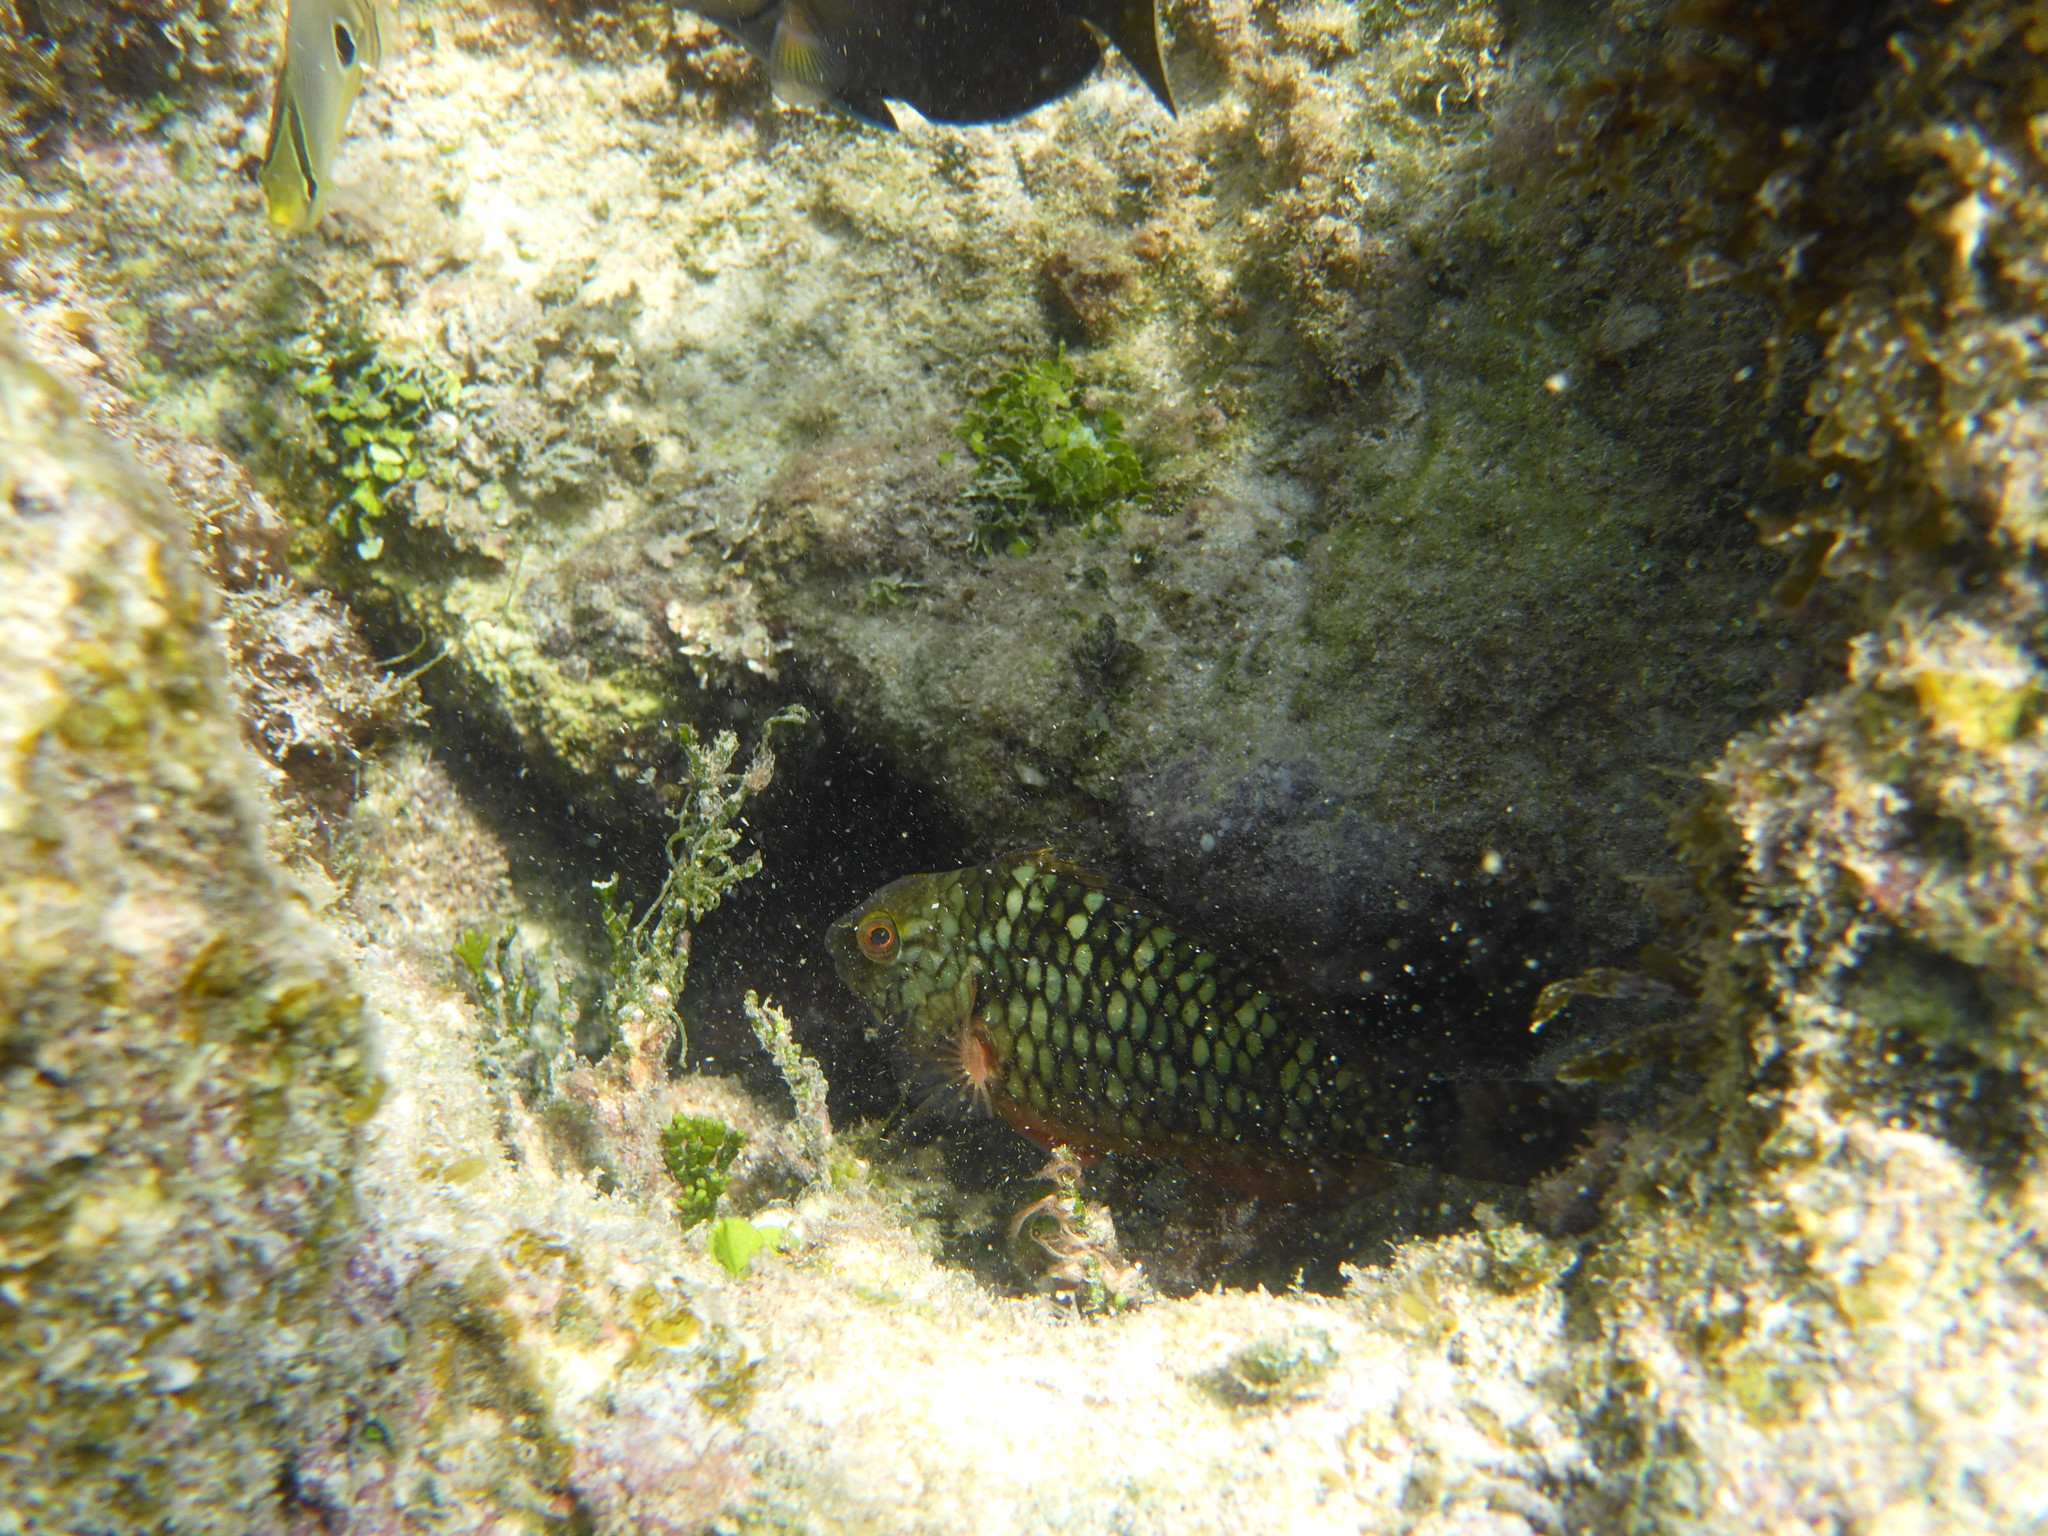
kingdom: Animalia
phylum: Chordata
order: Perciformes
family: Scaridae
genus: Sparisoma
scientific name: Sparisoma viride
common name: Stoplight parrotfish
